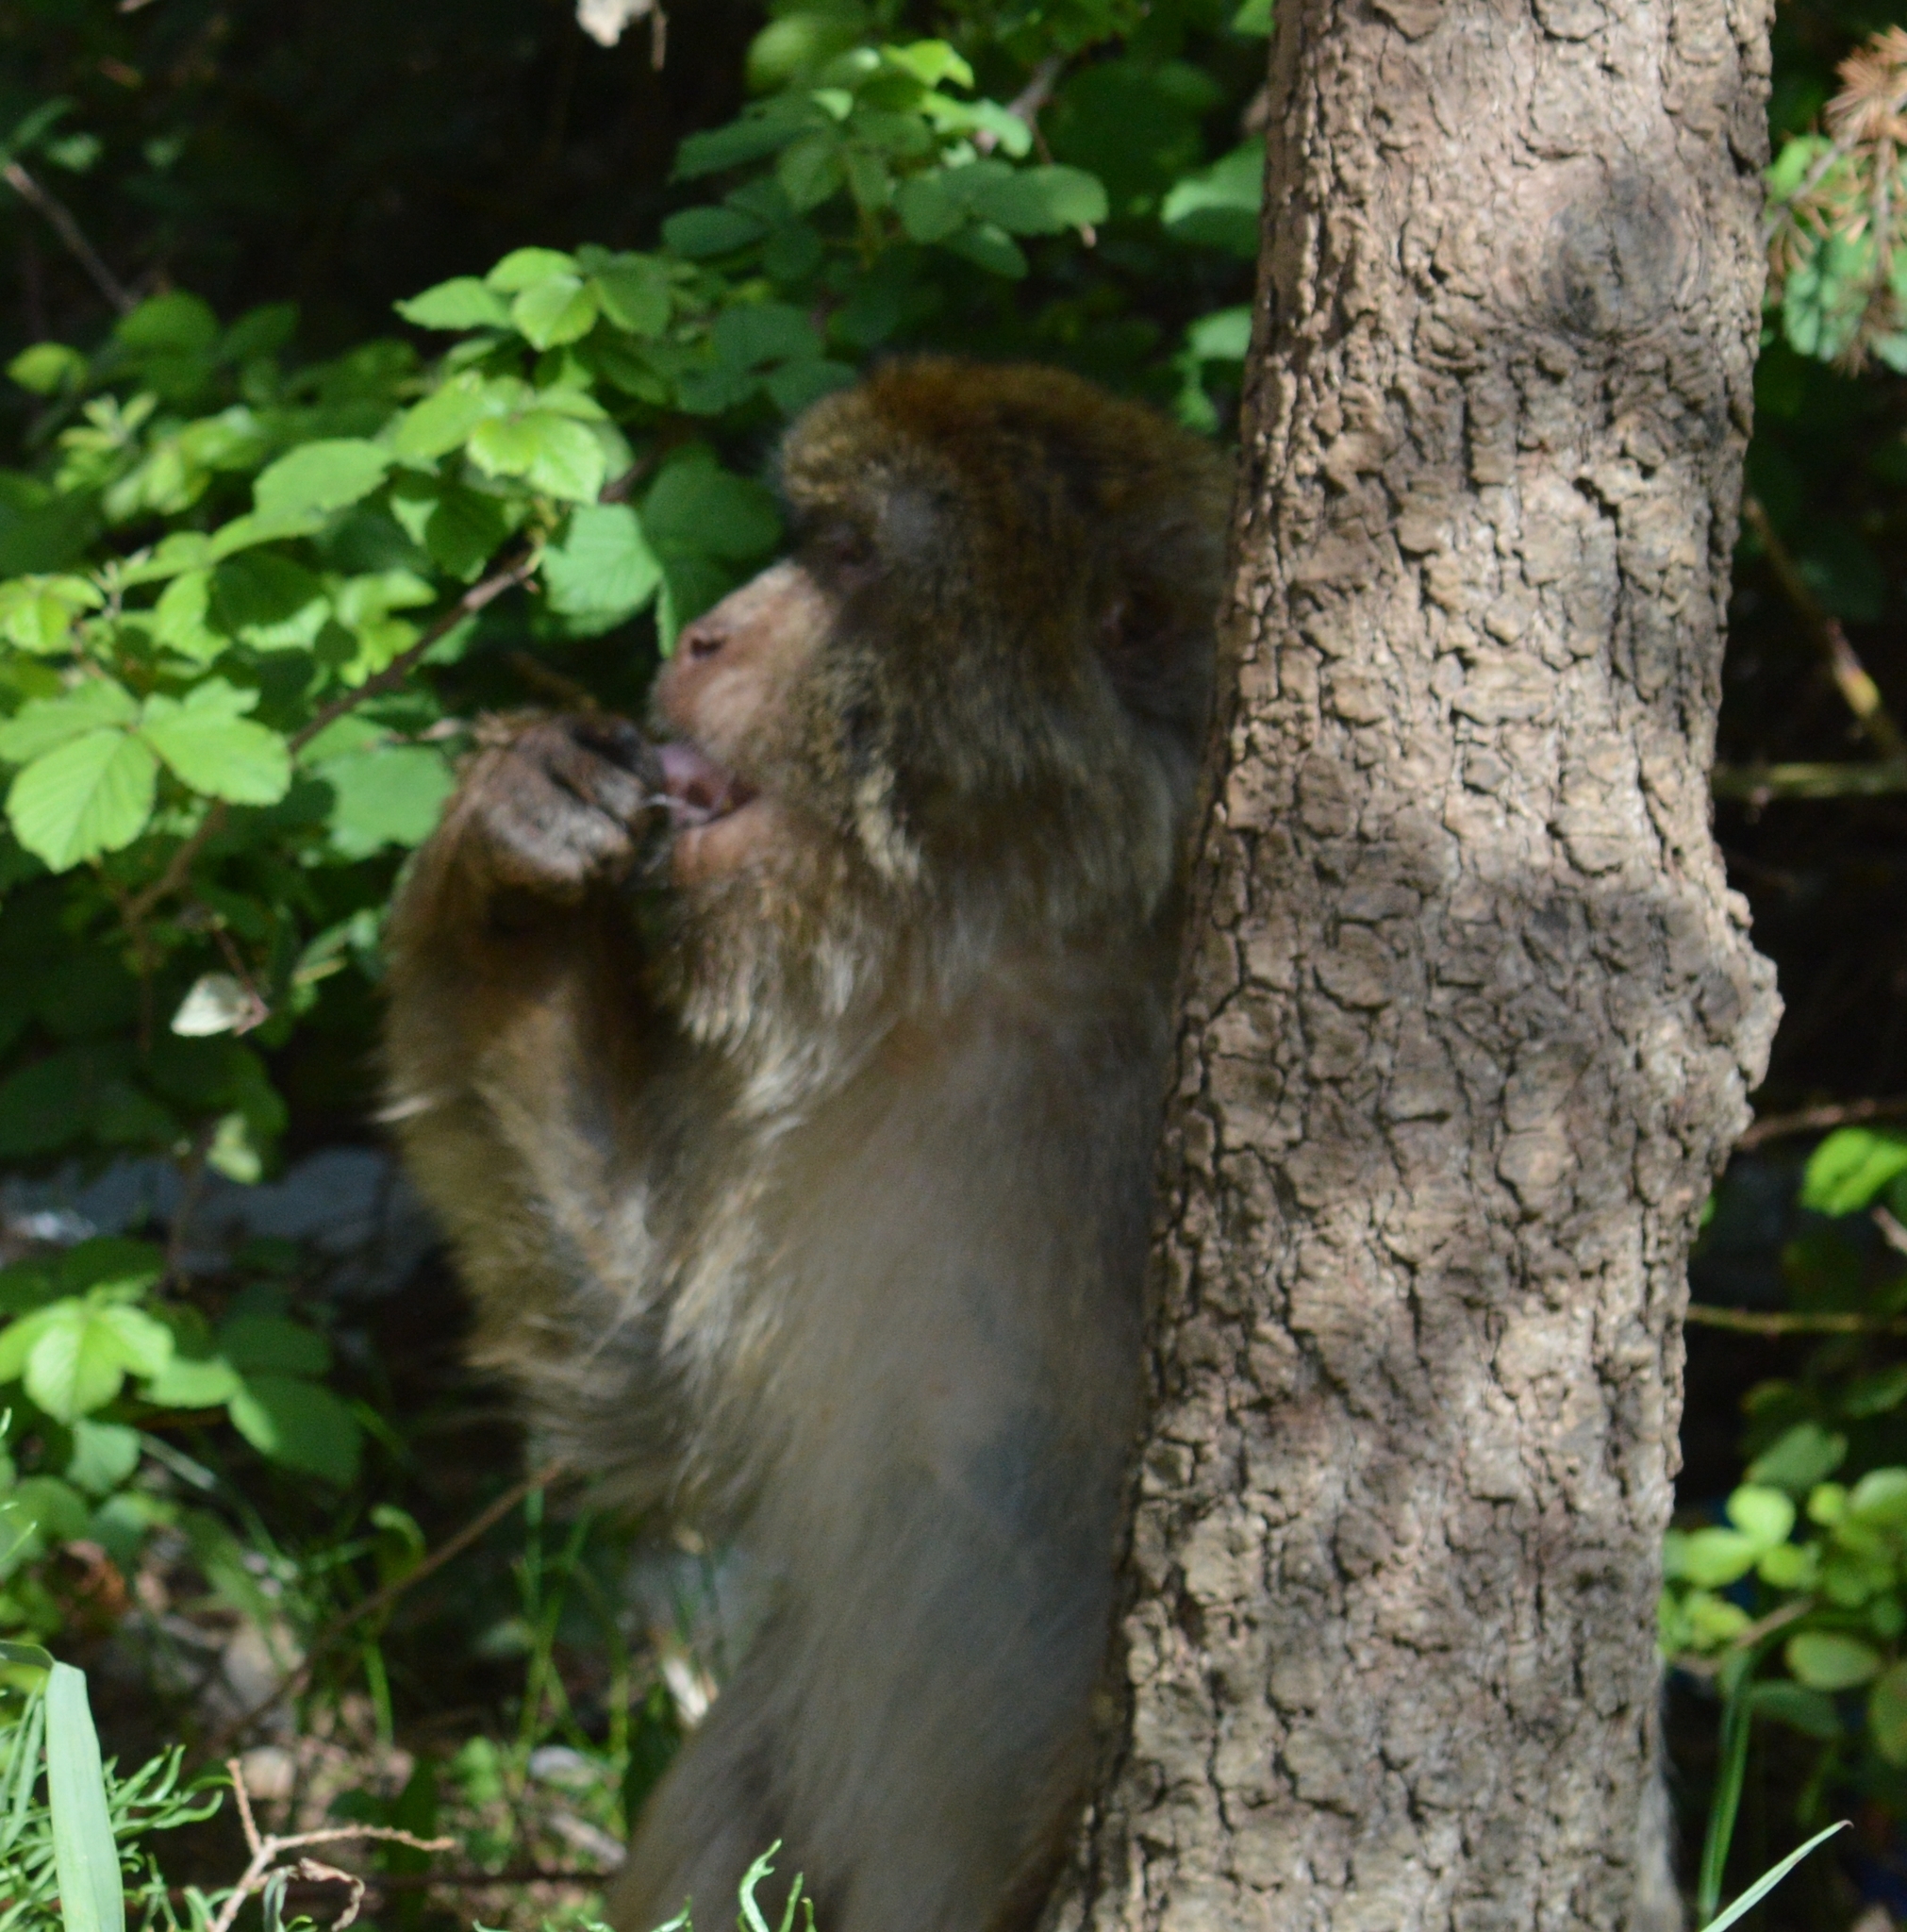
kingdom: Animalia
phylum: Chordata
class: Mammalia
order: Primates
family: Cercopithecidae
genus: Macaca
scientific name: Macaca sylvanus
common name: Barbary macaque
